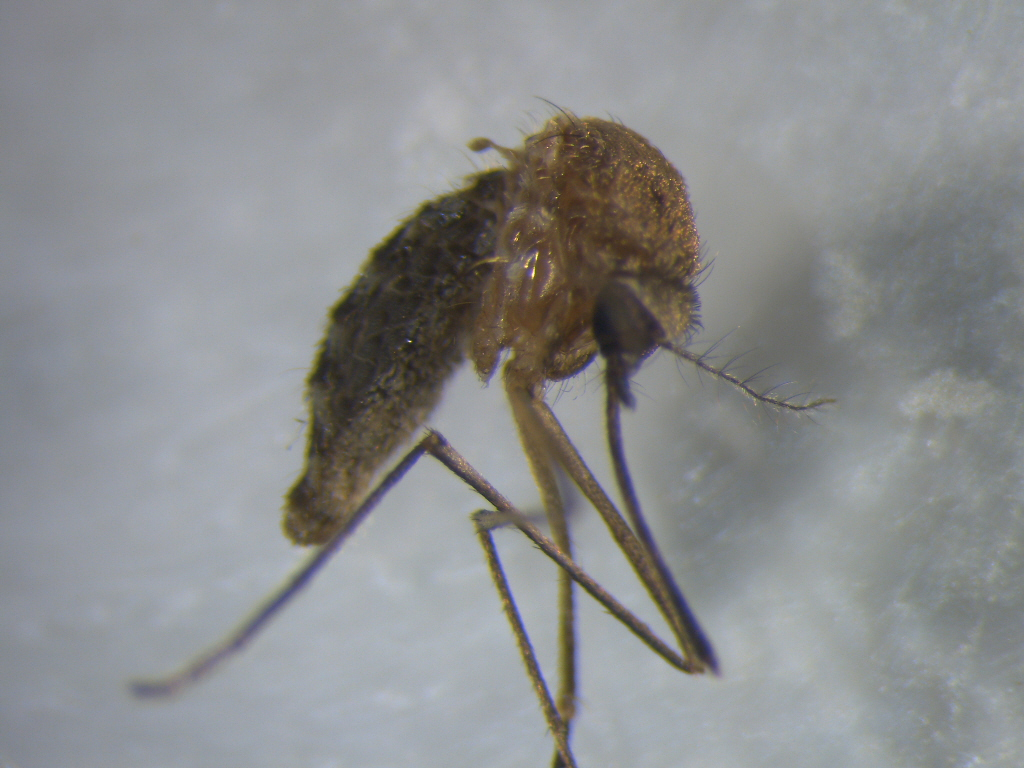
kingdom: Animalia
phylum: Arthropoda
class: Insecta
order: Diptera
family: Culicidae
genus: Culex
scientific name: Culex quinquefasciatus
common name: Southern house mosquito
